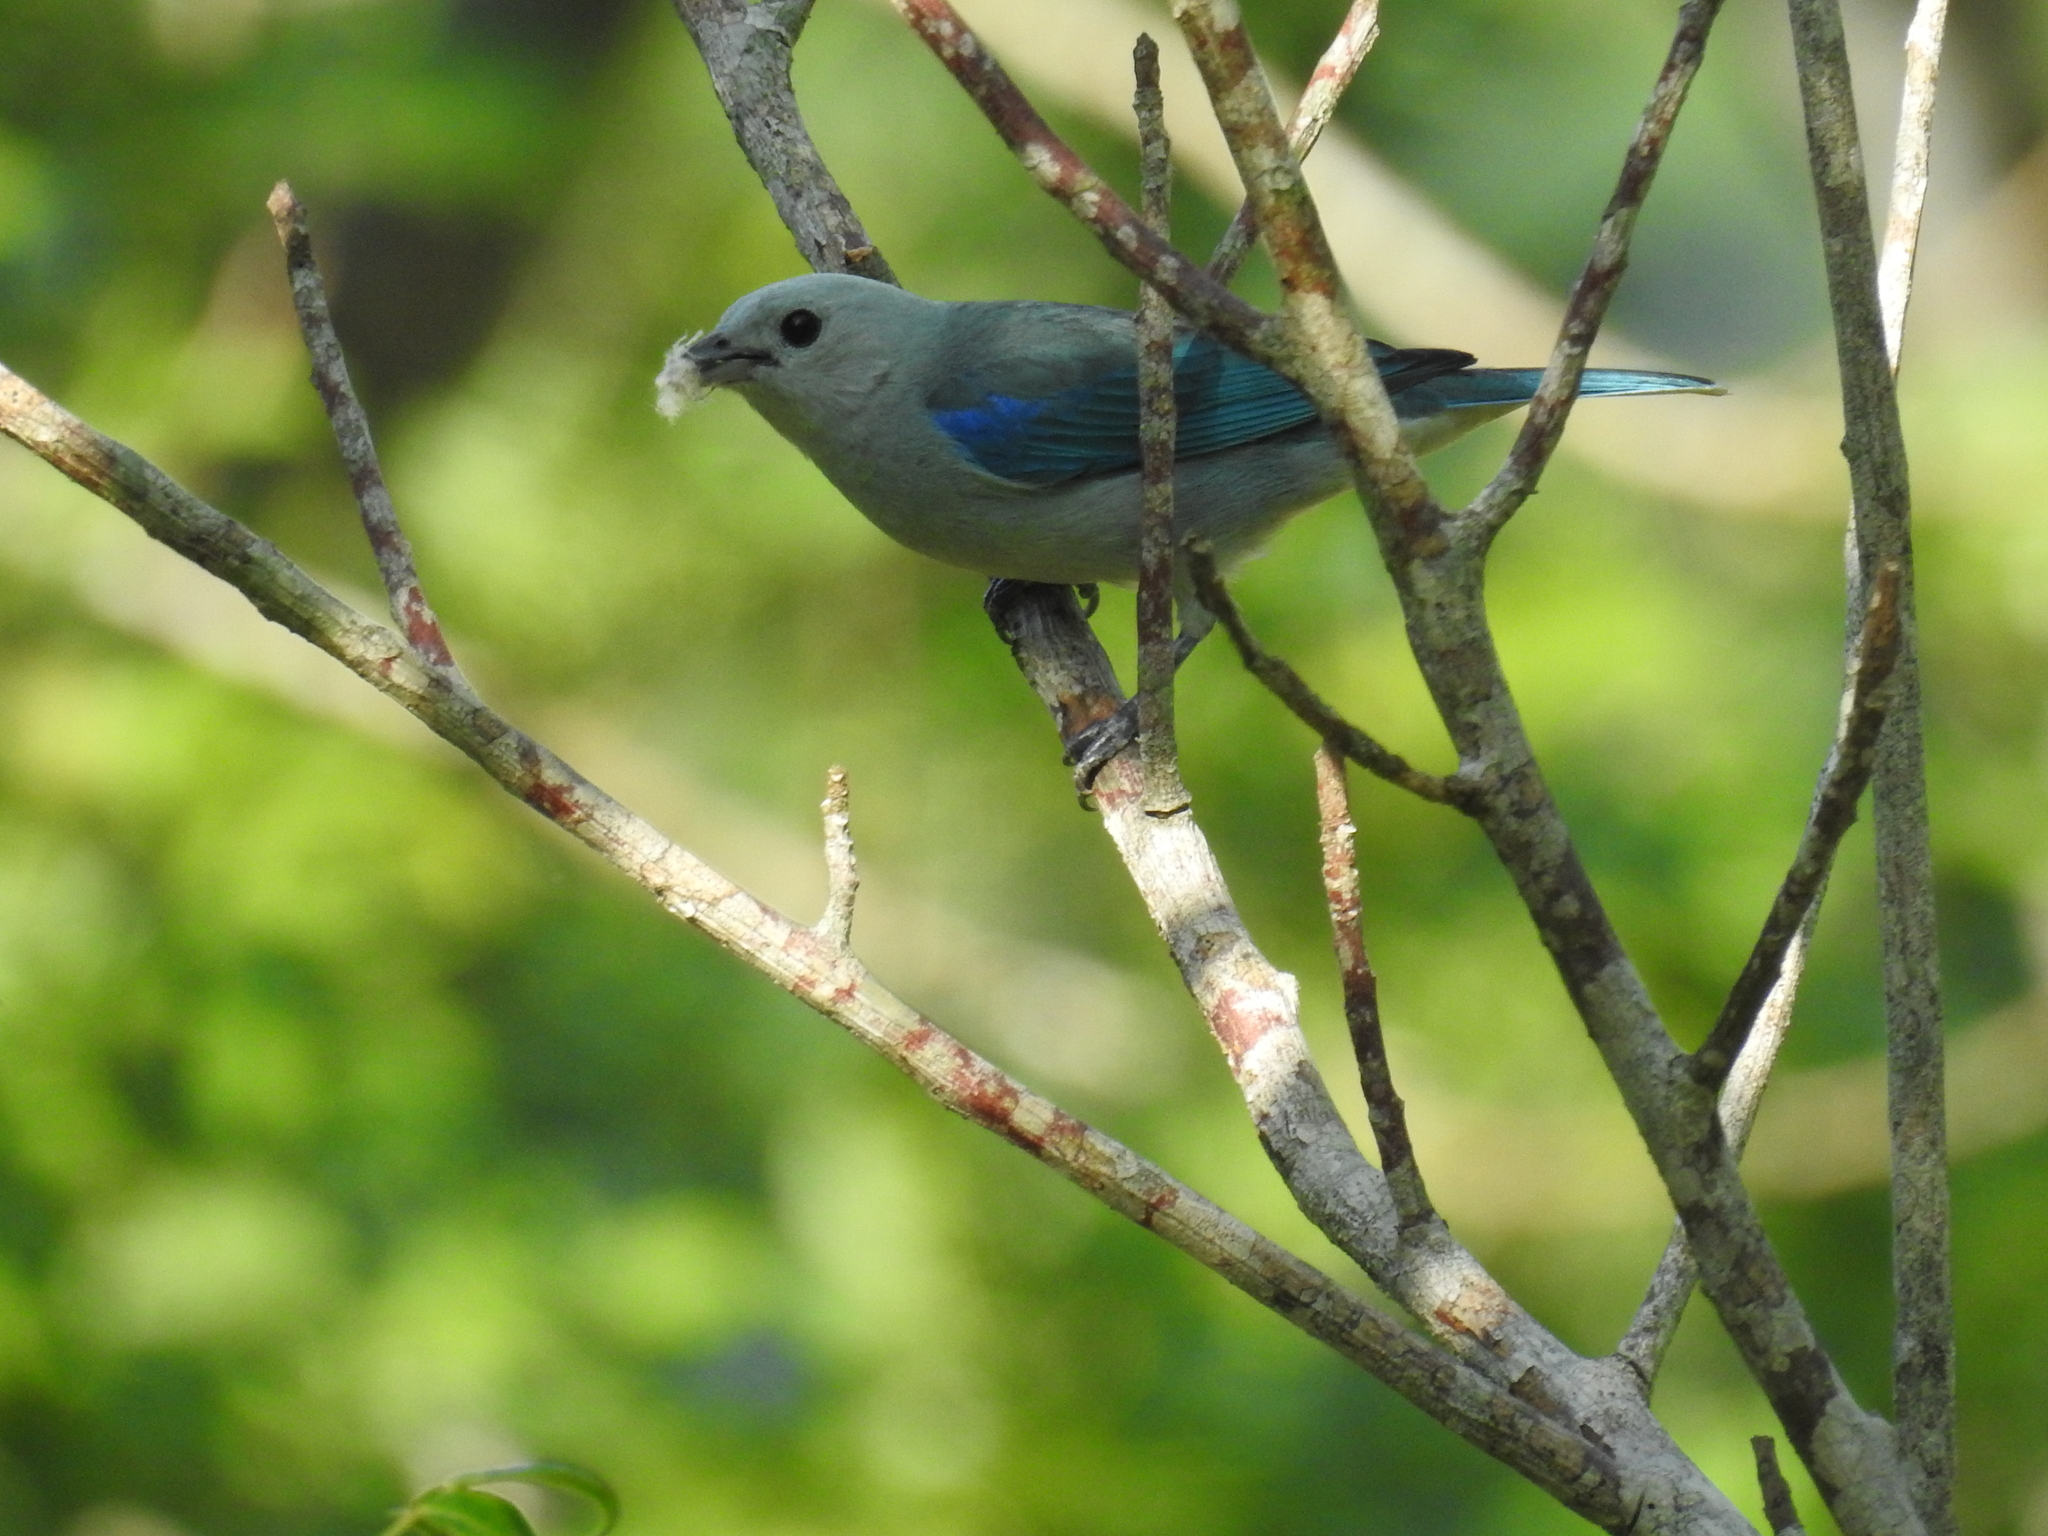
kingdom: Animalia
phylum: Chordata
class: Aves
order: Passeriformes
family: Thraupidae
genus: Thraupis
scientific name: Thraupis episcopus
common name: Blue-grey tanager
